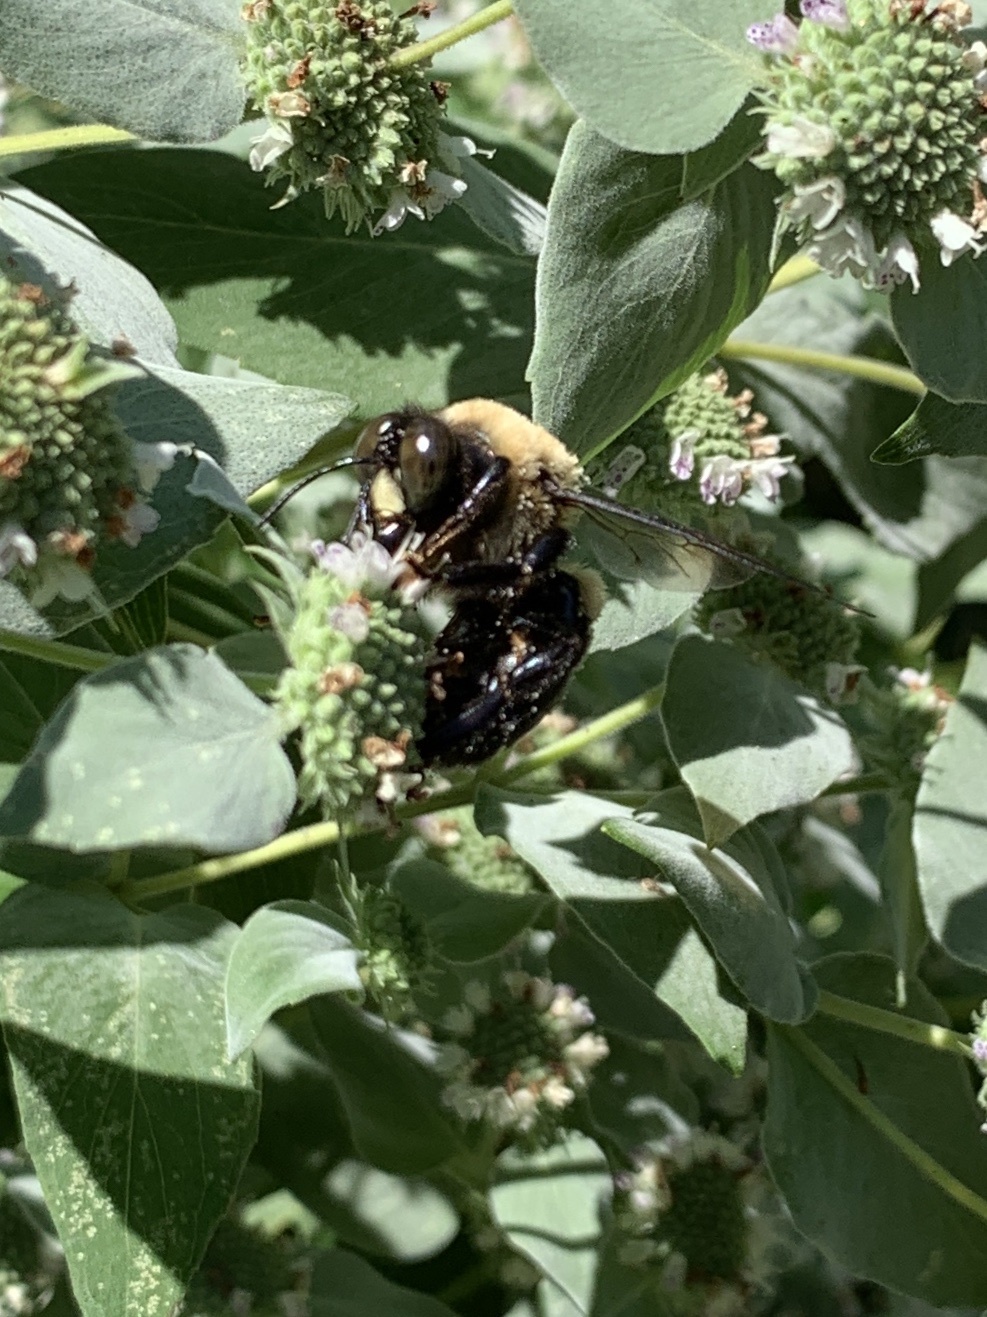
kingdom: Animalia
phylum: Arthropoda
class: Insecta
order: Hymenoptera
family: Apidae
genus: Xylocopa
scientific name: Xylocopa virginica
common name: Carpenter bee
